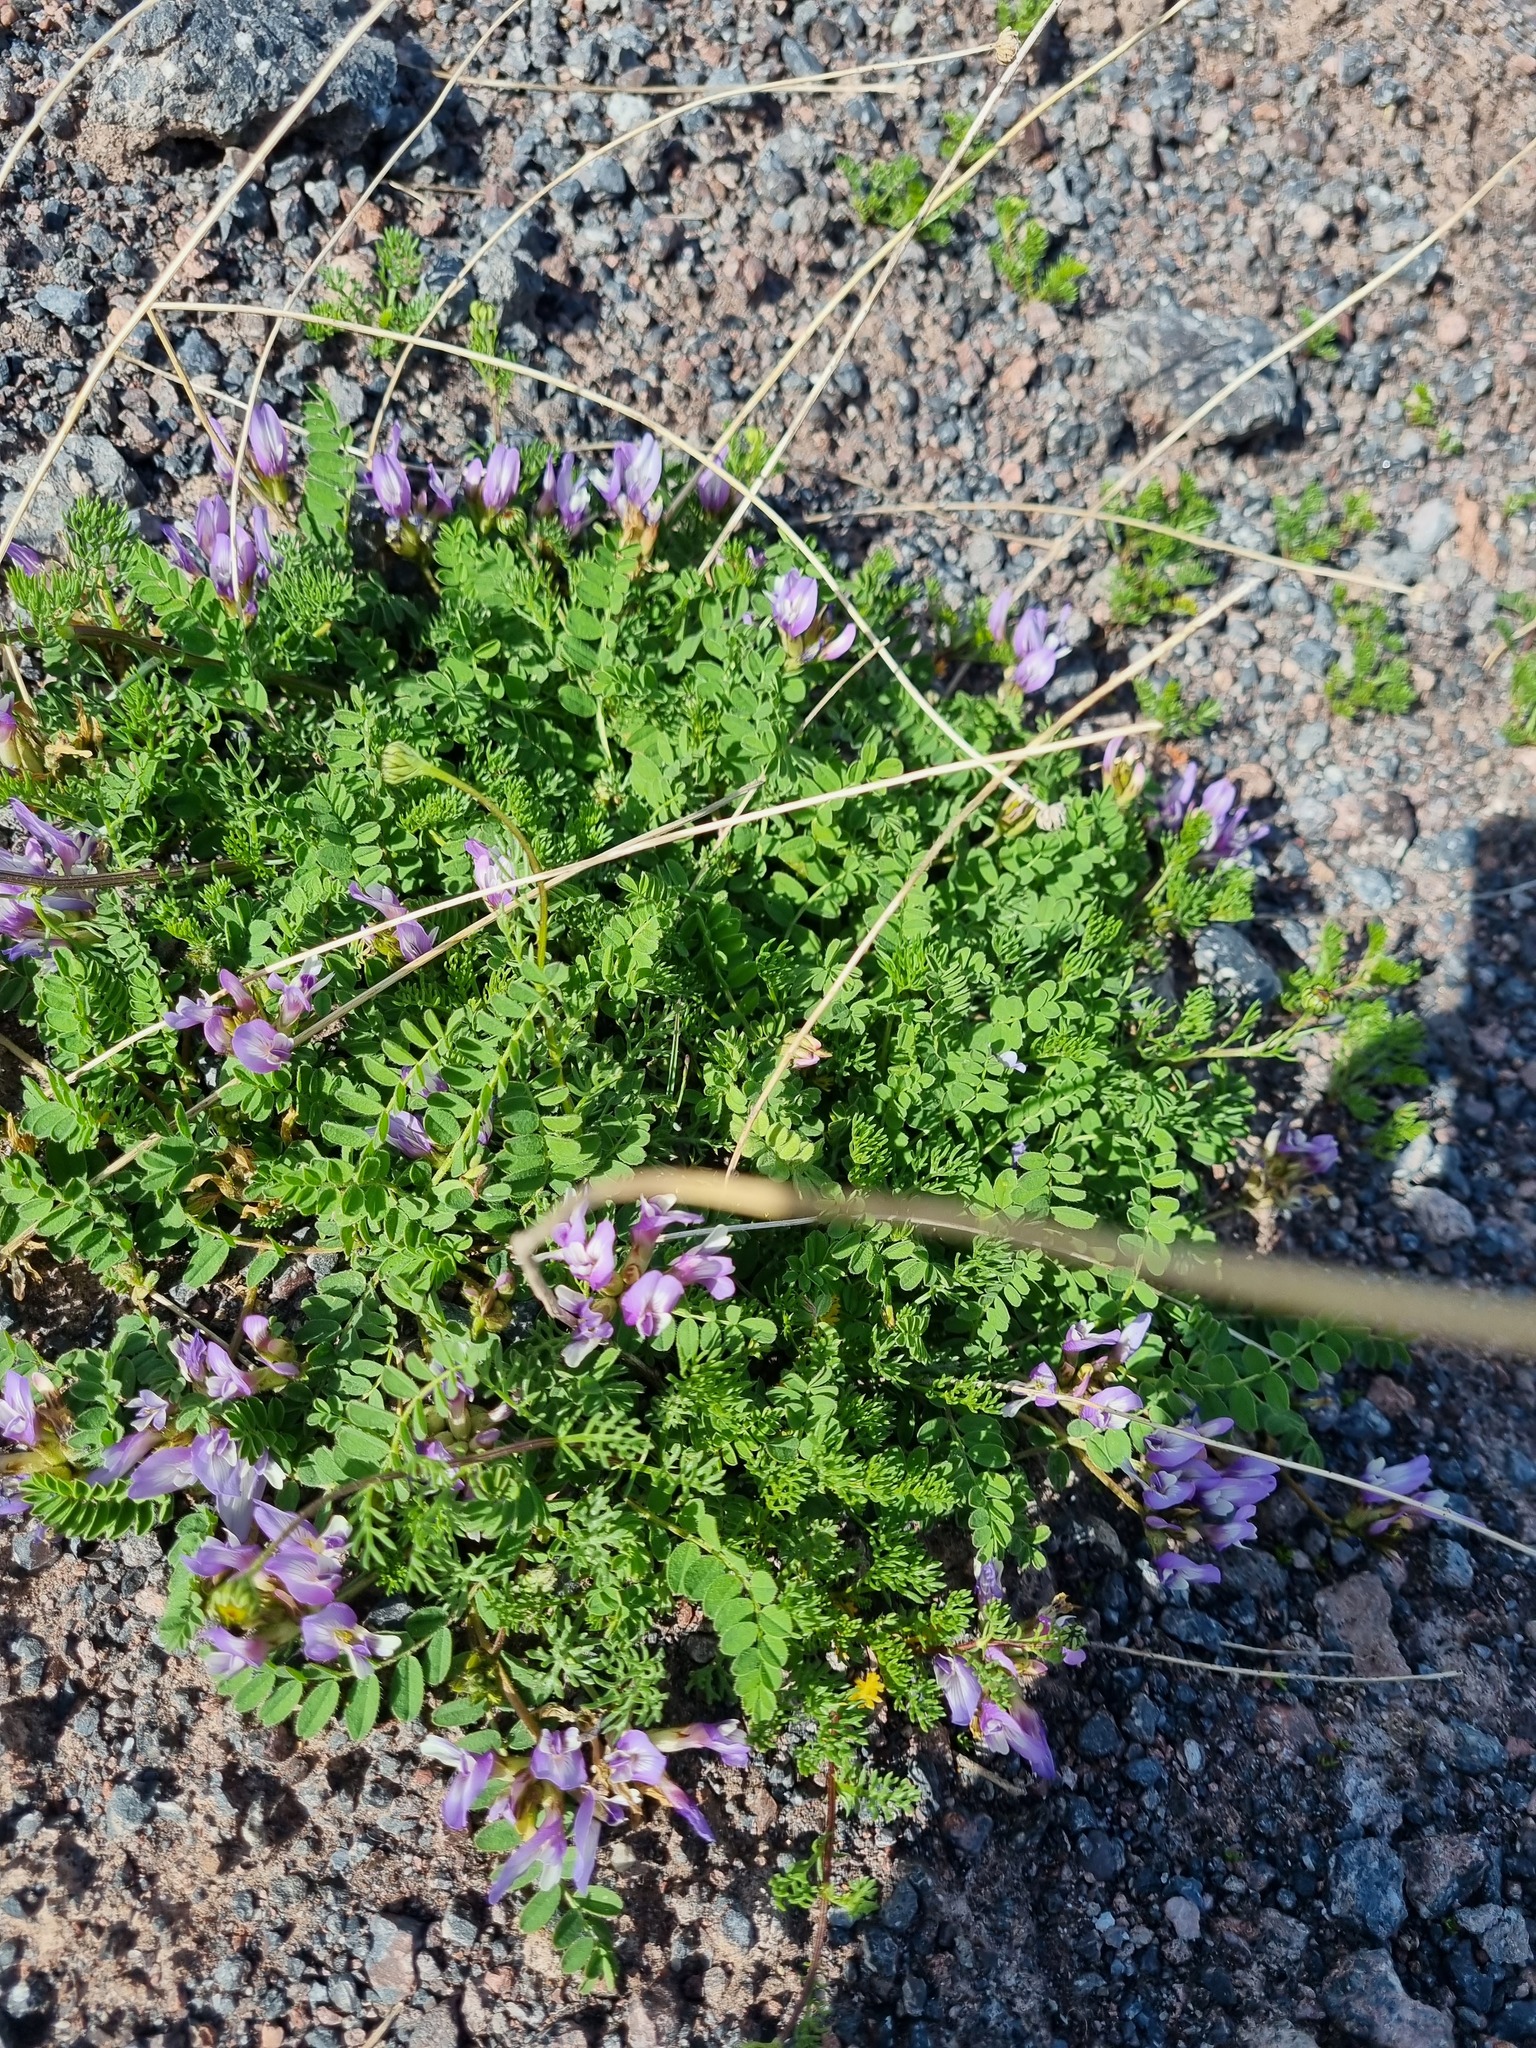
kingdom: Plantae
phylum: Tracheophyta
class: Magnoliopsida
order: Fabales
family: Fabaceae
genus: Astragalus
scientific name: Astragalus oreades
